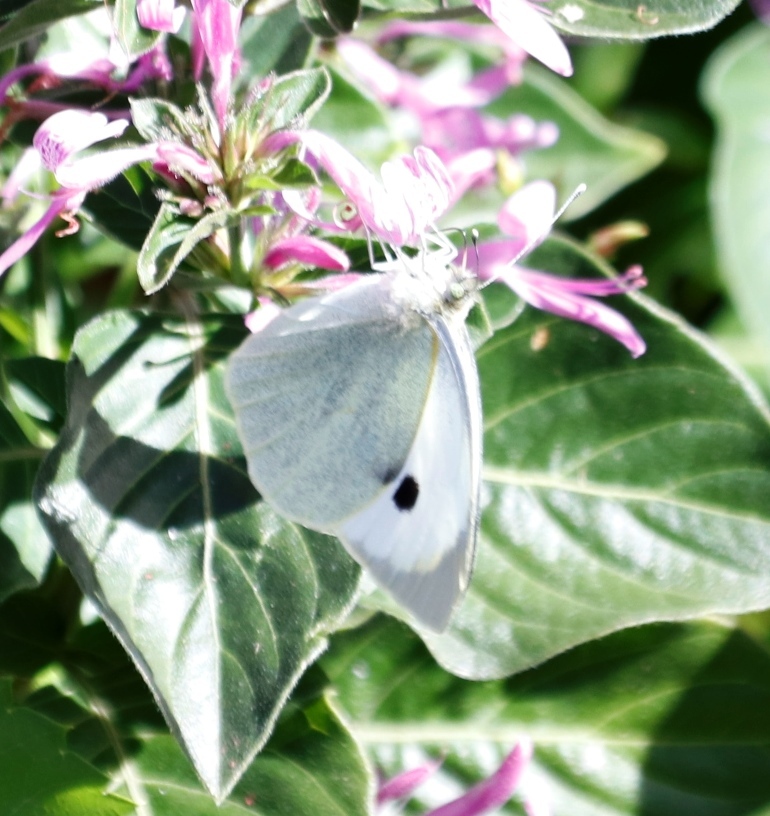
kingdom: Animalia
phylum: Arthropoda
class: Insecta
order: Lepidoptera
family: Pieridae
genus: Pieris
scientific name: Pieris brassicae
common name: Large white
